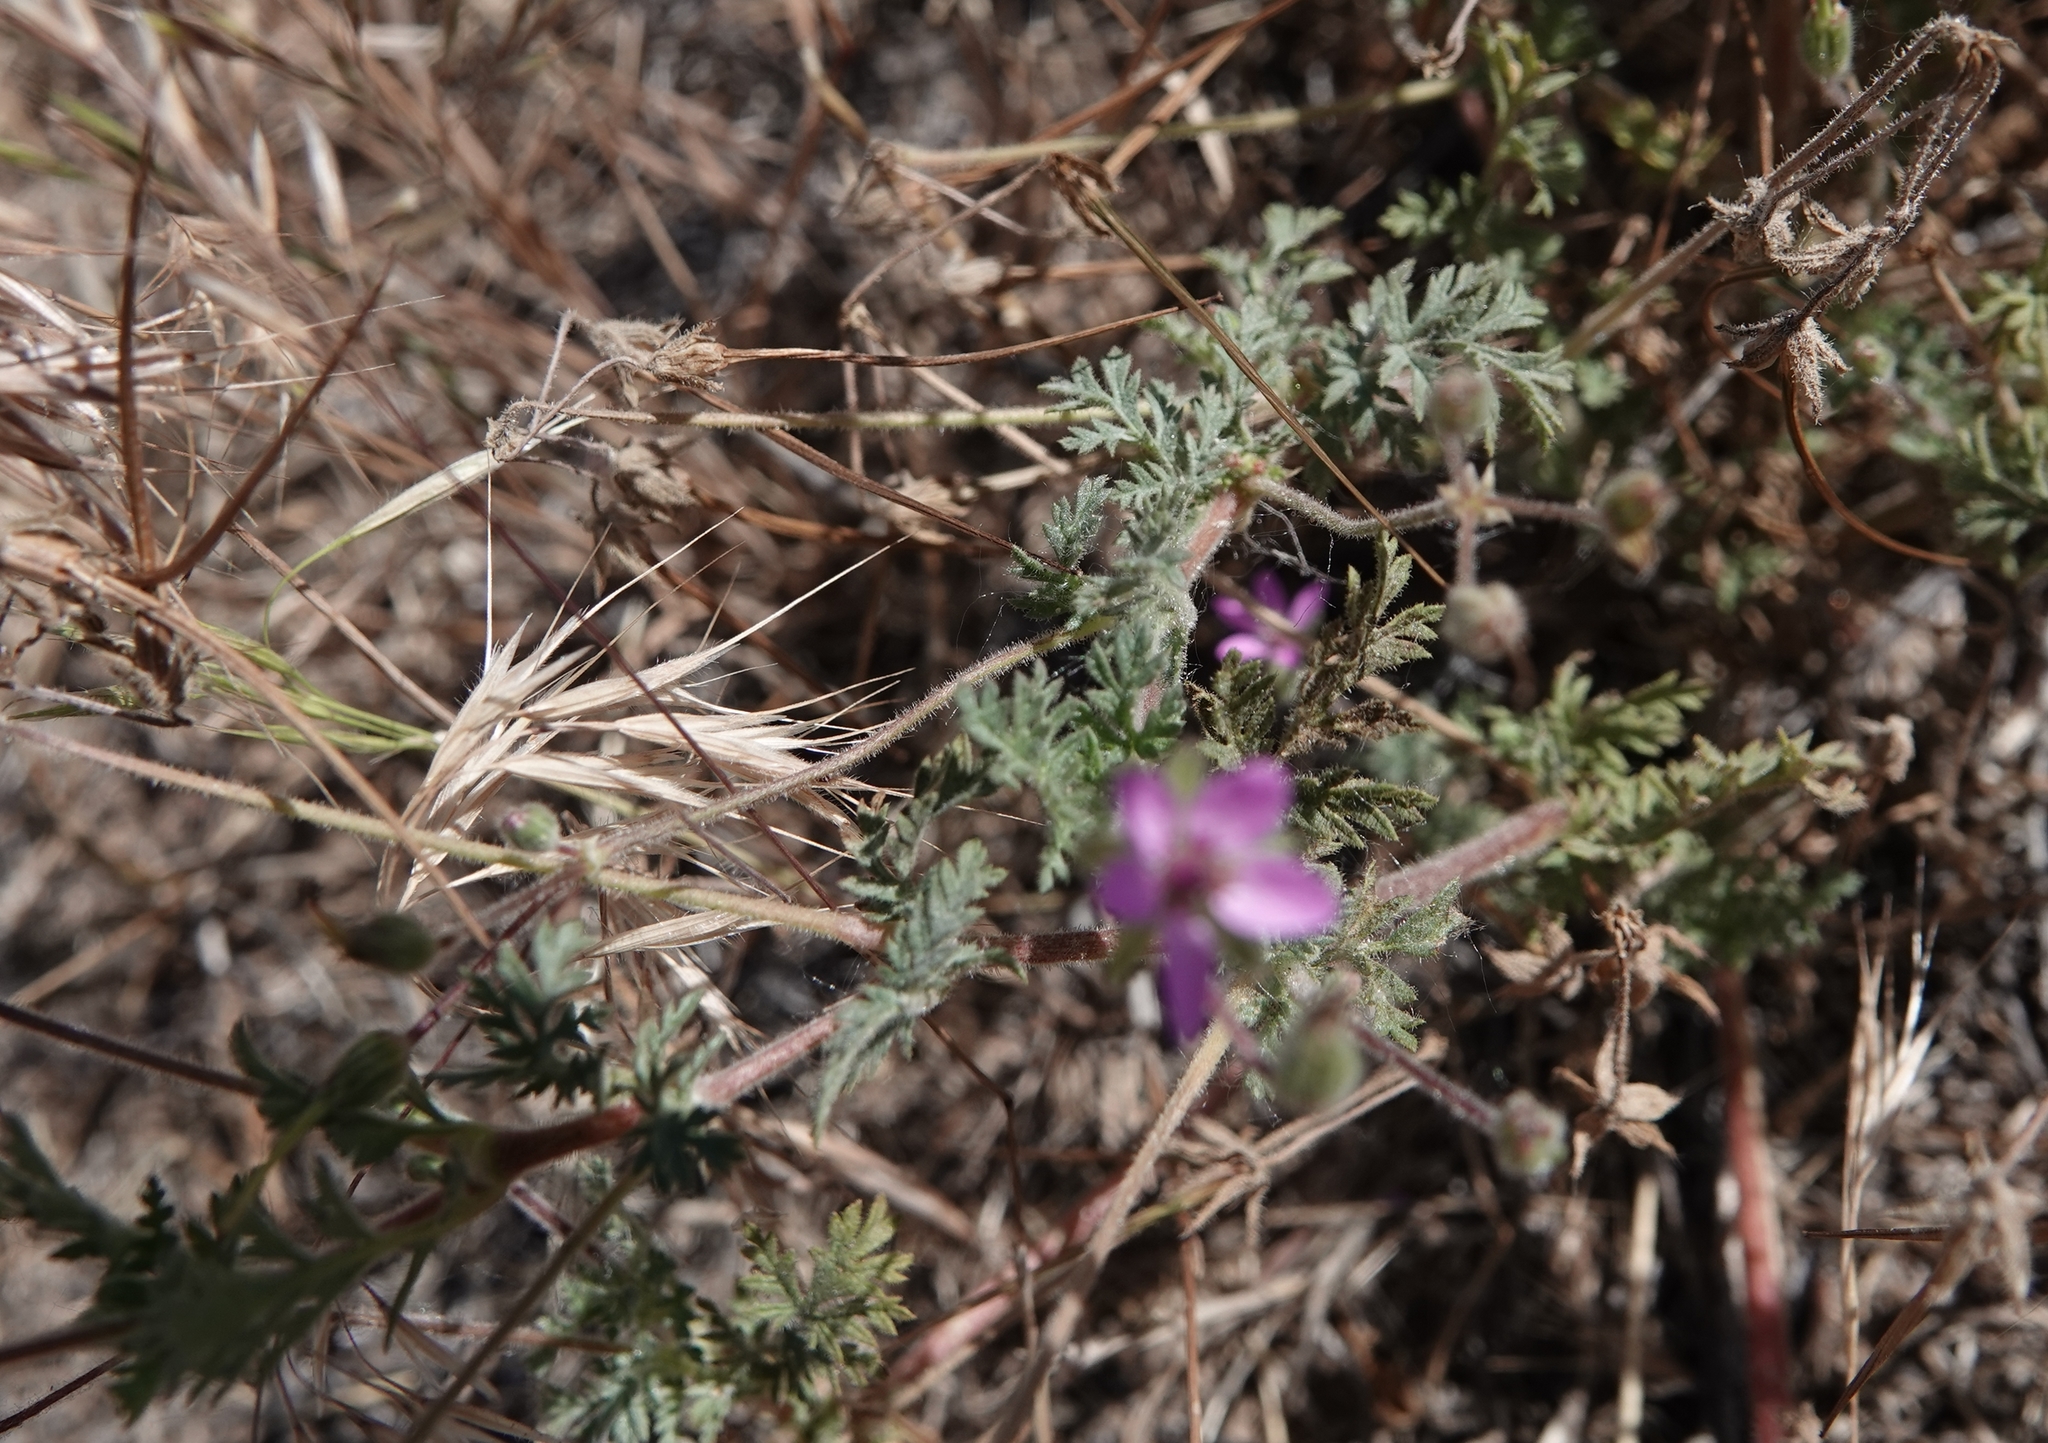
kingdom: Plantae
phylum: Tracheophyta
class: Magnoliopsida
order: Geraniales
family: Geraniaceae
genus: Erodium
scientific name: Erodium cicutarium
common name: Common stork's-bill
